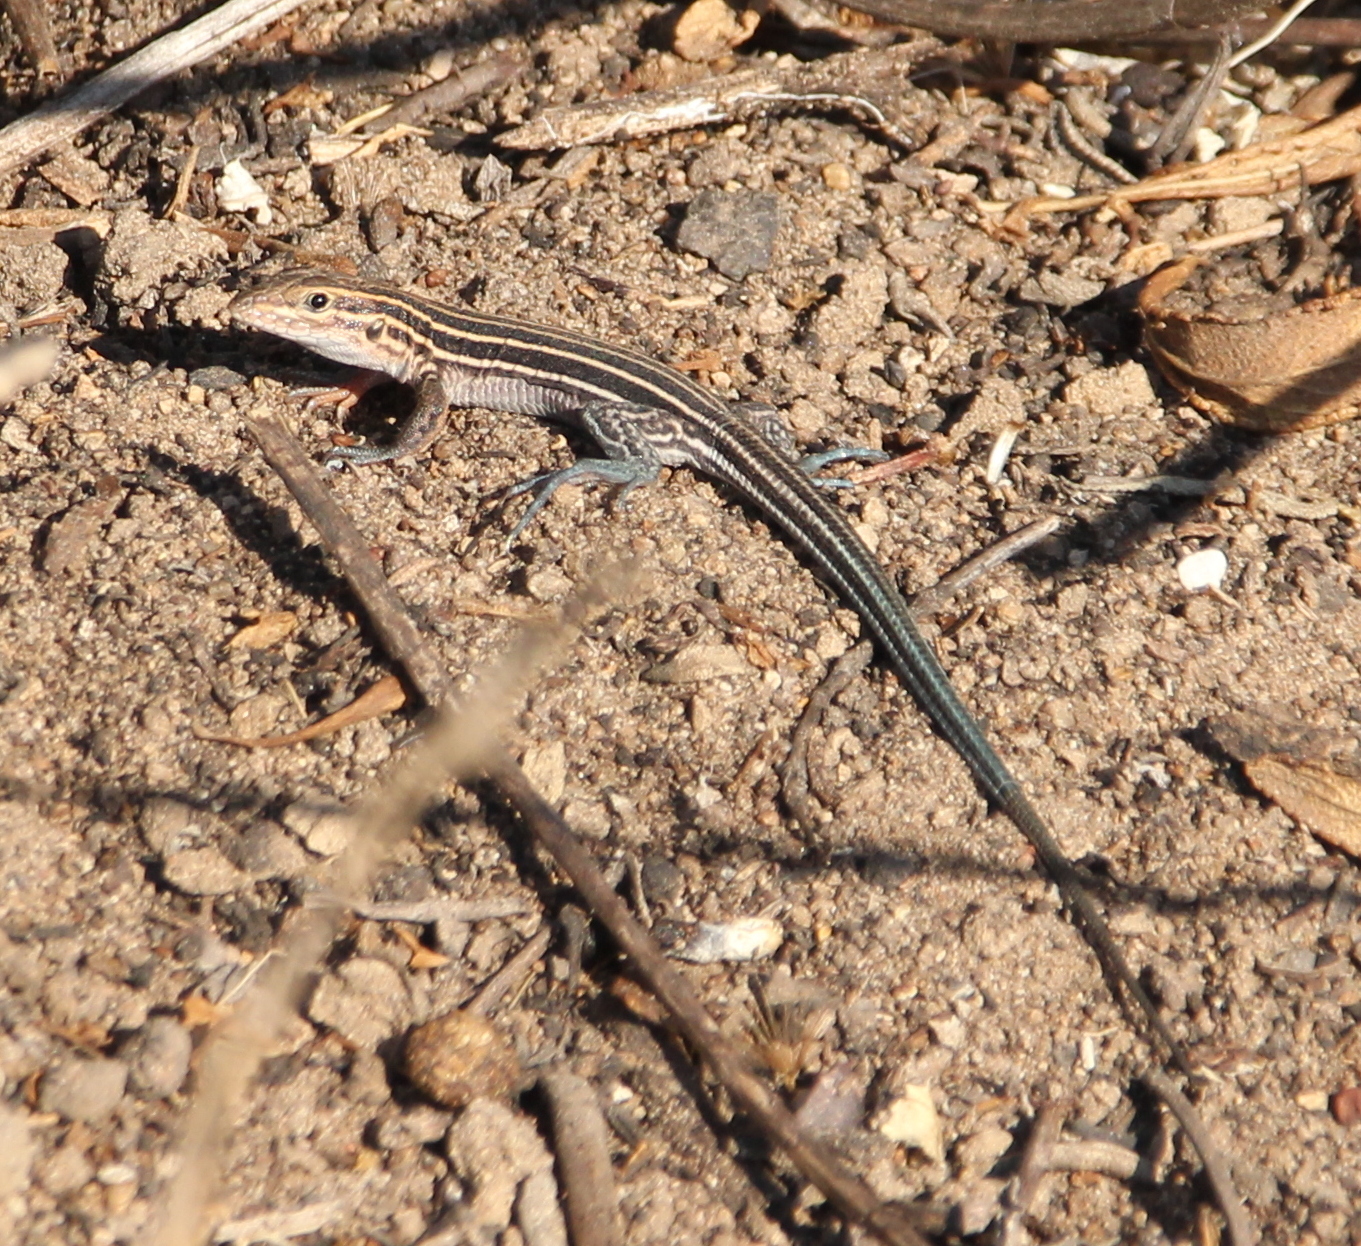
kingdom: Animalia
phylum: Chordata
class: Squamata
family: Teiidae
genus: Aspidoscelis
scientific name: Aspidoscelis hyperythrus
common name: Orange-throated race-runner
